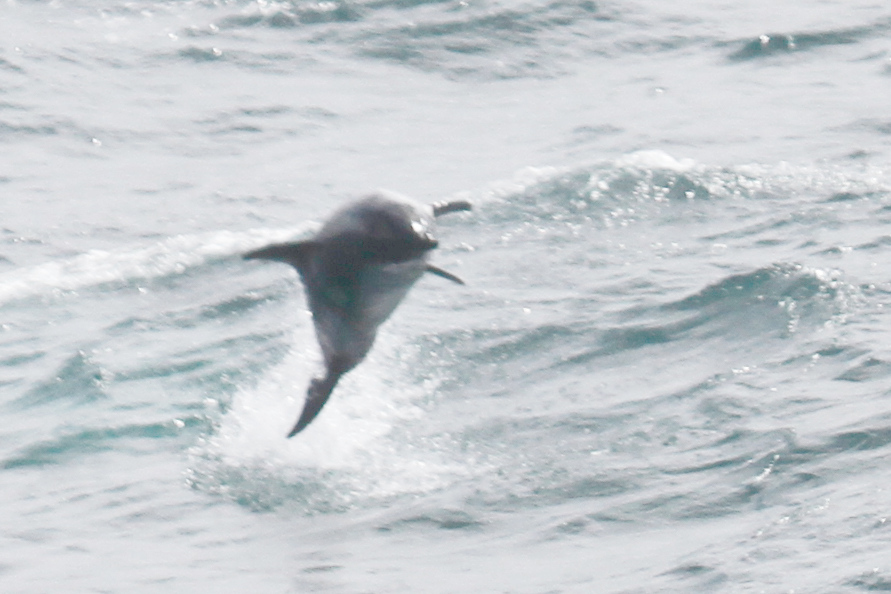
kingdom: Animalia
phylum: Chordata
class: Mammalia
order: Cetacea
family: Delphinidae
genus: Lagenorhynchus
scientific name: Lagenorhynchus australis
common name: Peale's dolphin
